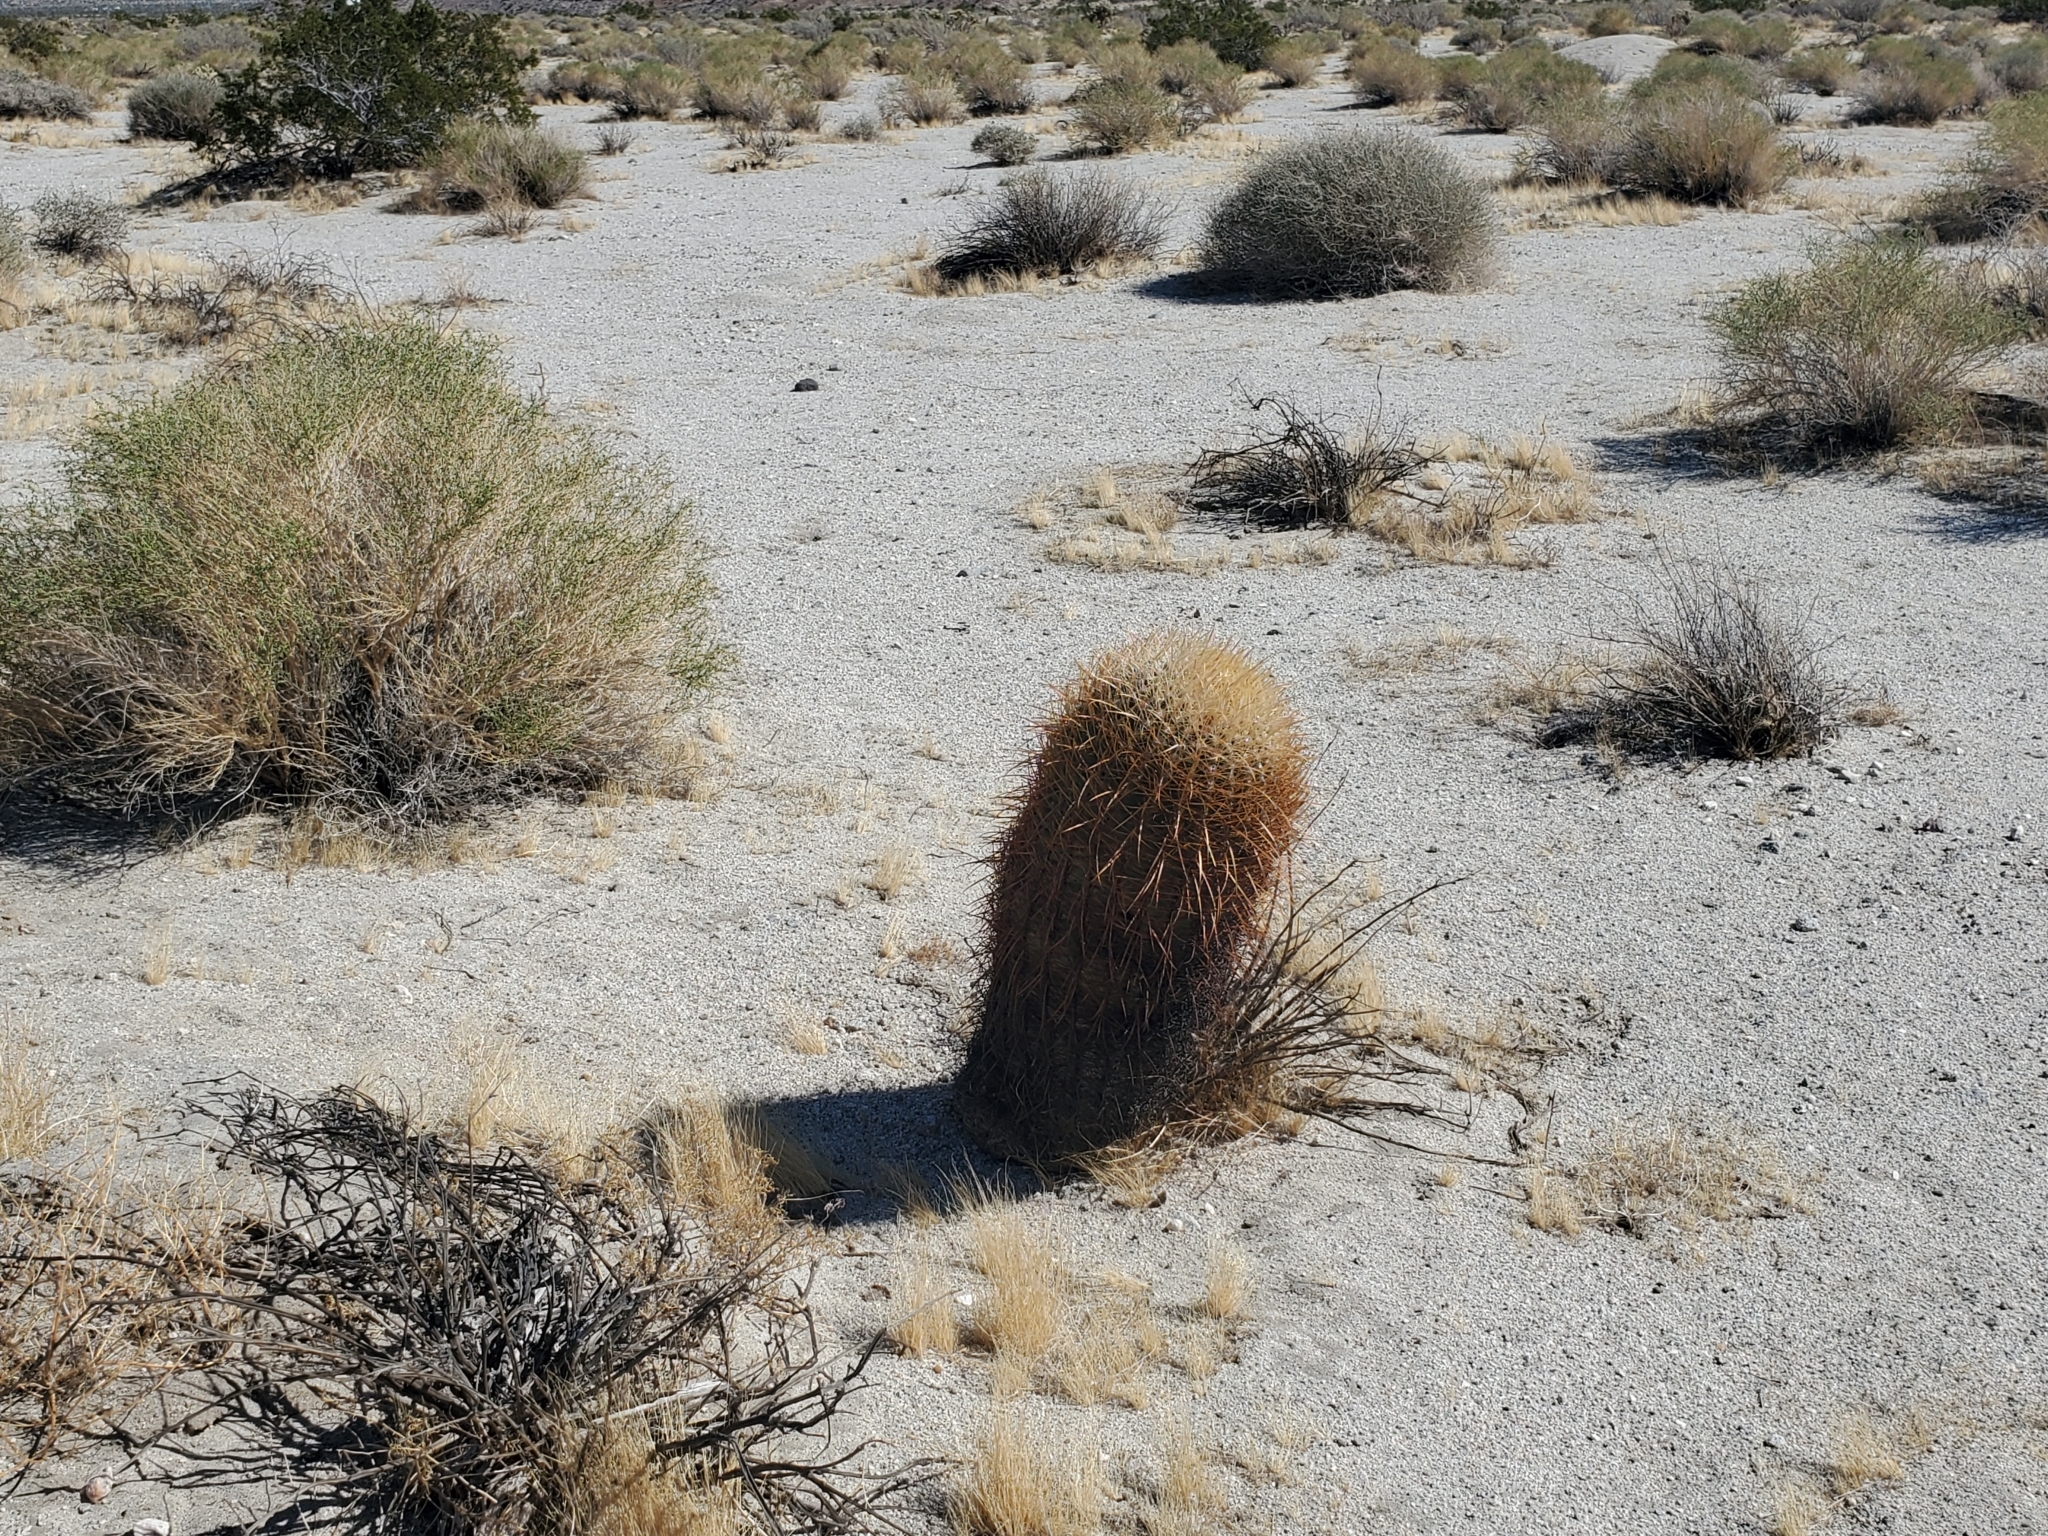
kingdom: Plantae
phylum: Tracheophyta
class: Magnoliopsida
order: Caryophyllales
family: Cactaceae
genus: Ferocactus
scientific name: Ferocactus cylindraceus
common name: California barrel cactus
